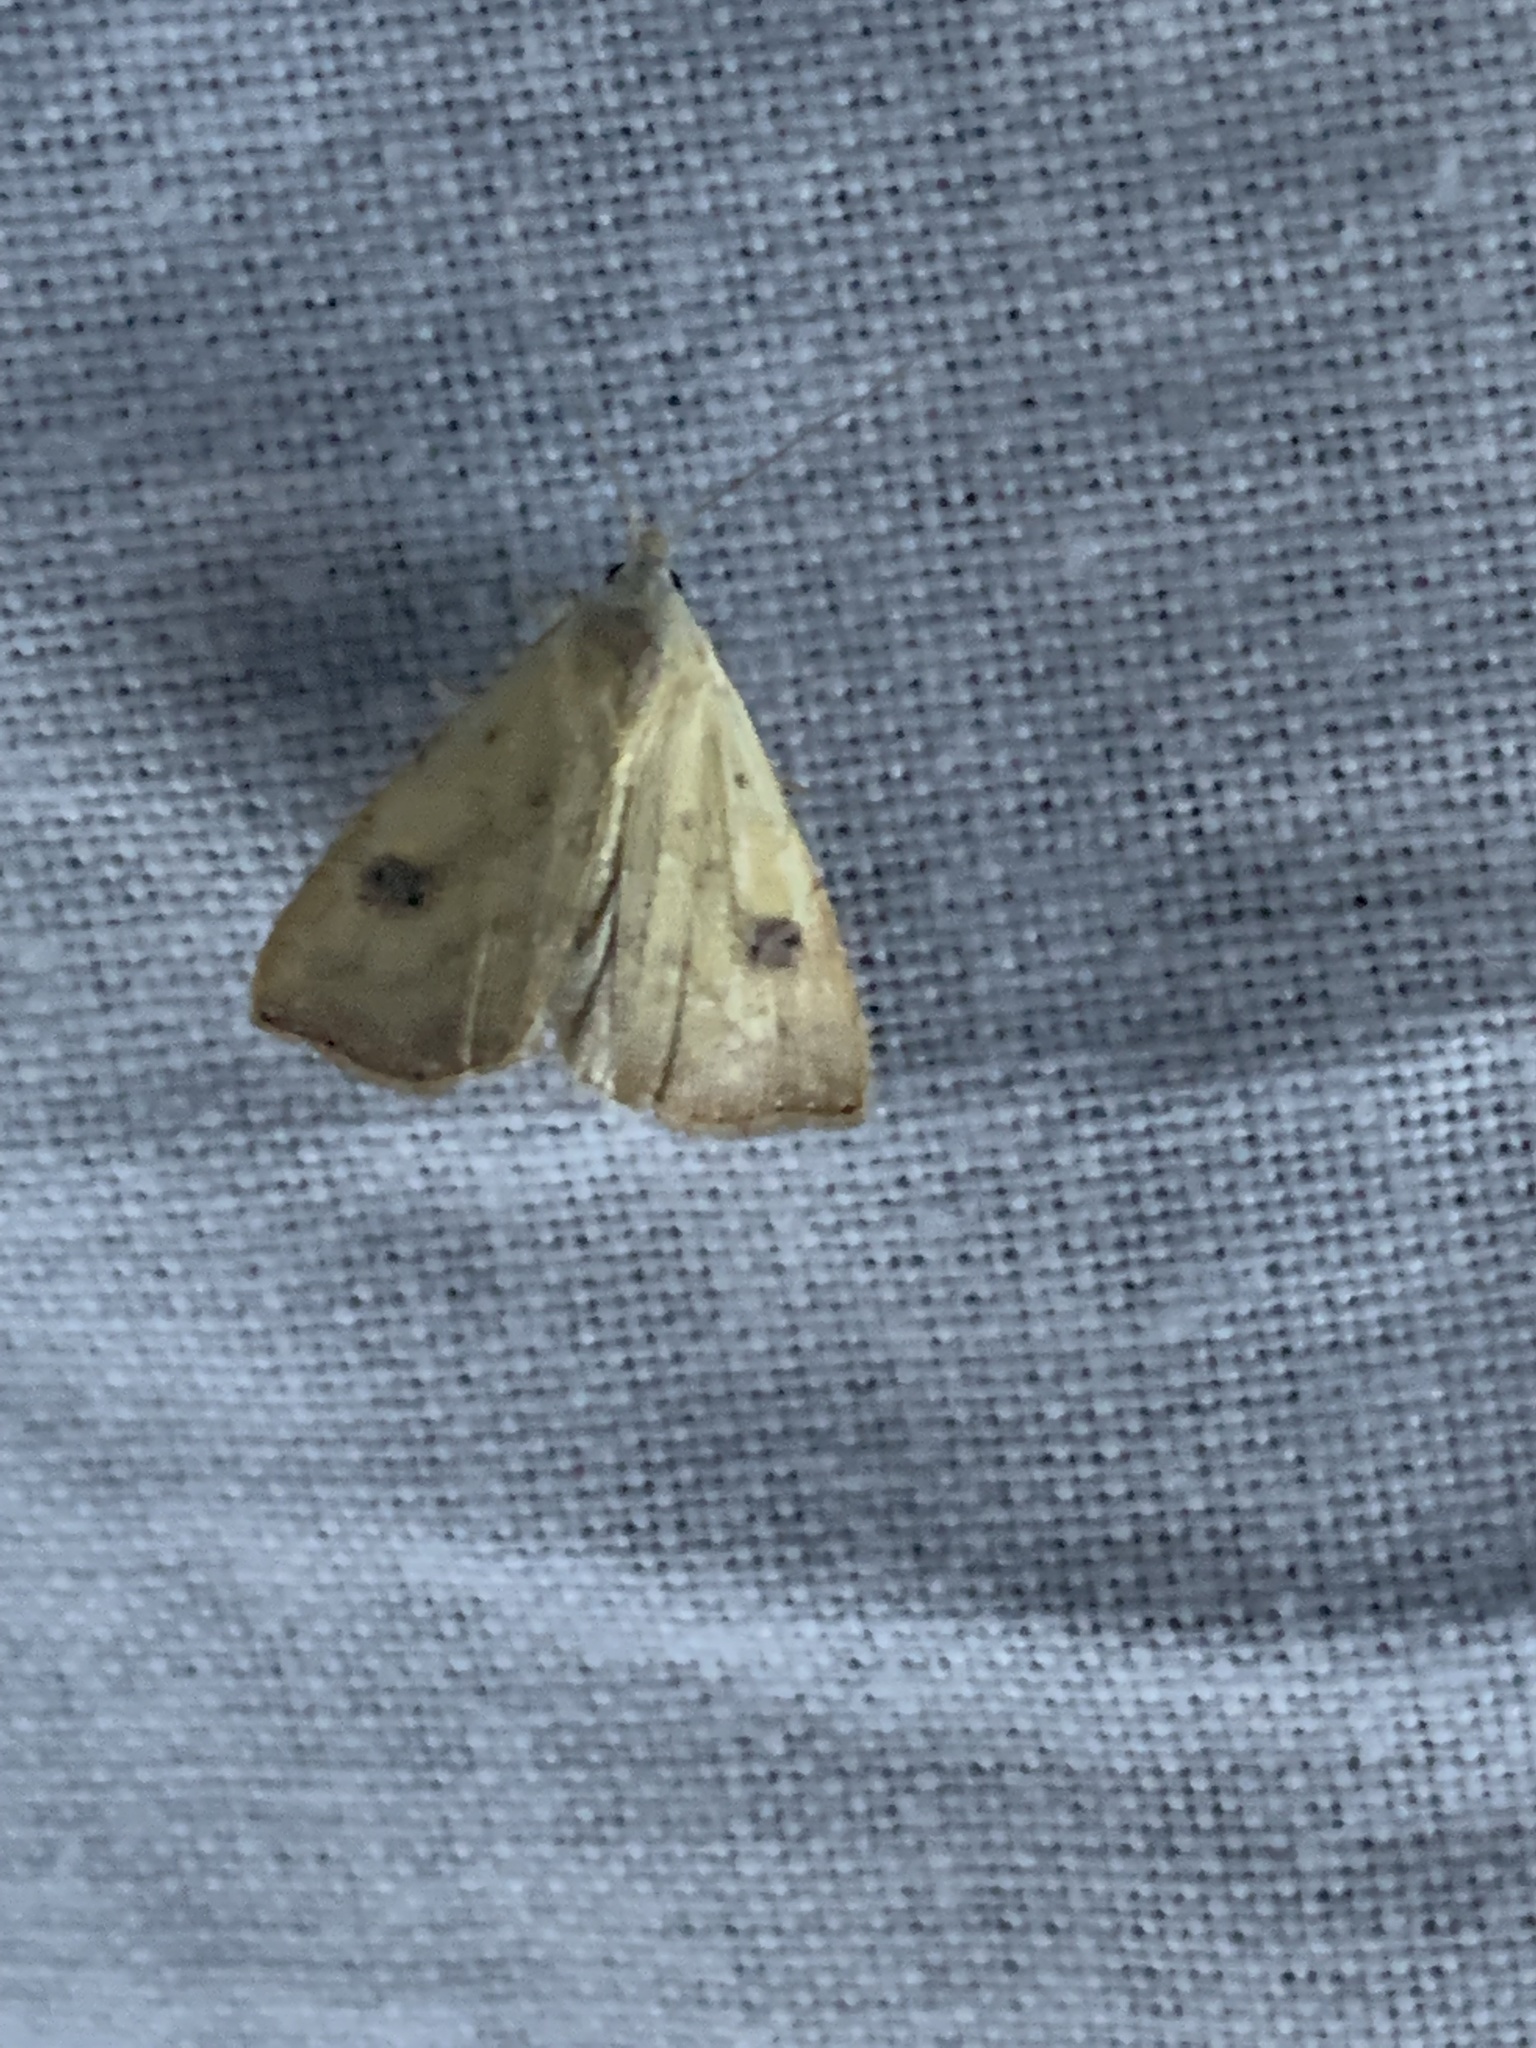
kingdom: Animalia
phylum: Arthropoda
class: Insecta
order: Lepidoptera
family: Erebidae
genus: Rivula
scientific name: Rivula sericealis
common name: Straw dot
